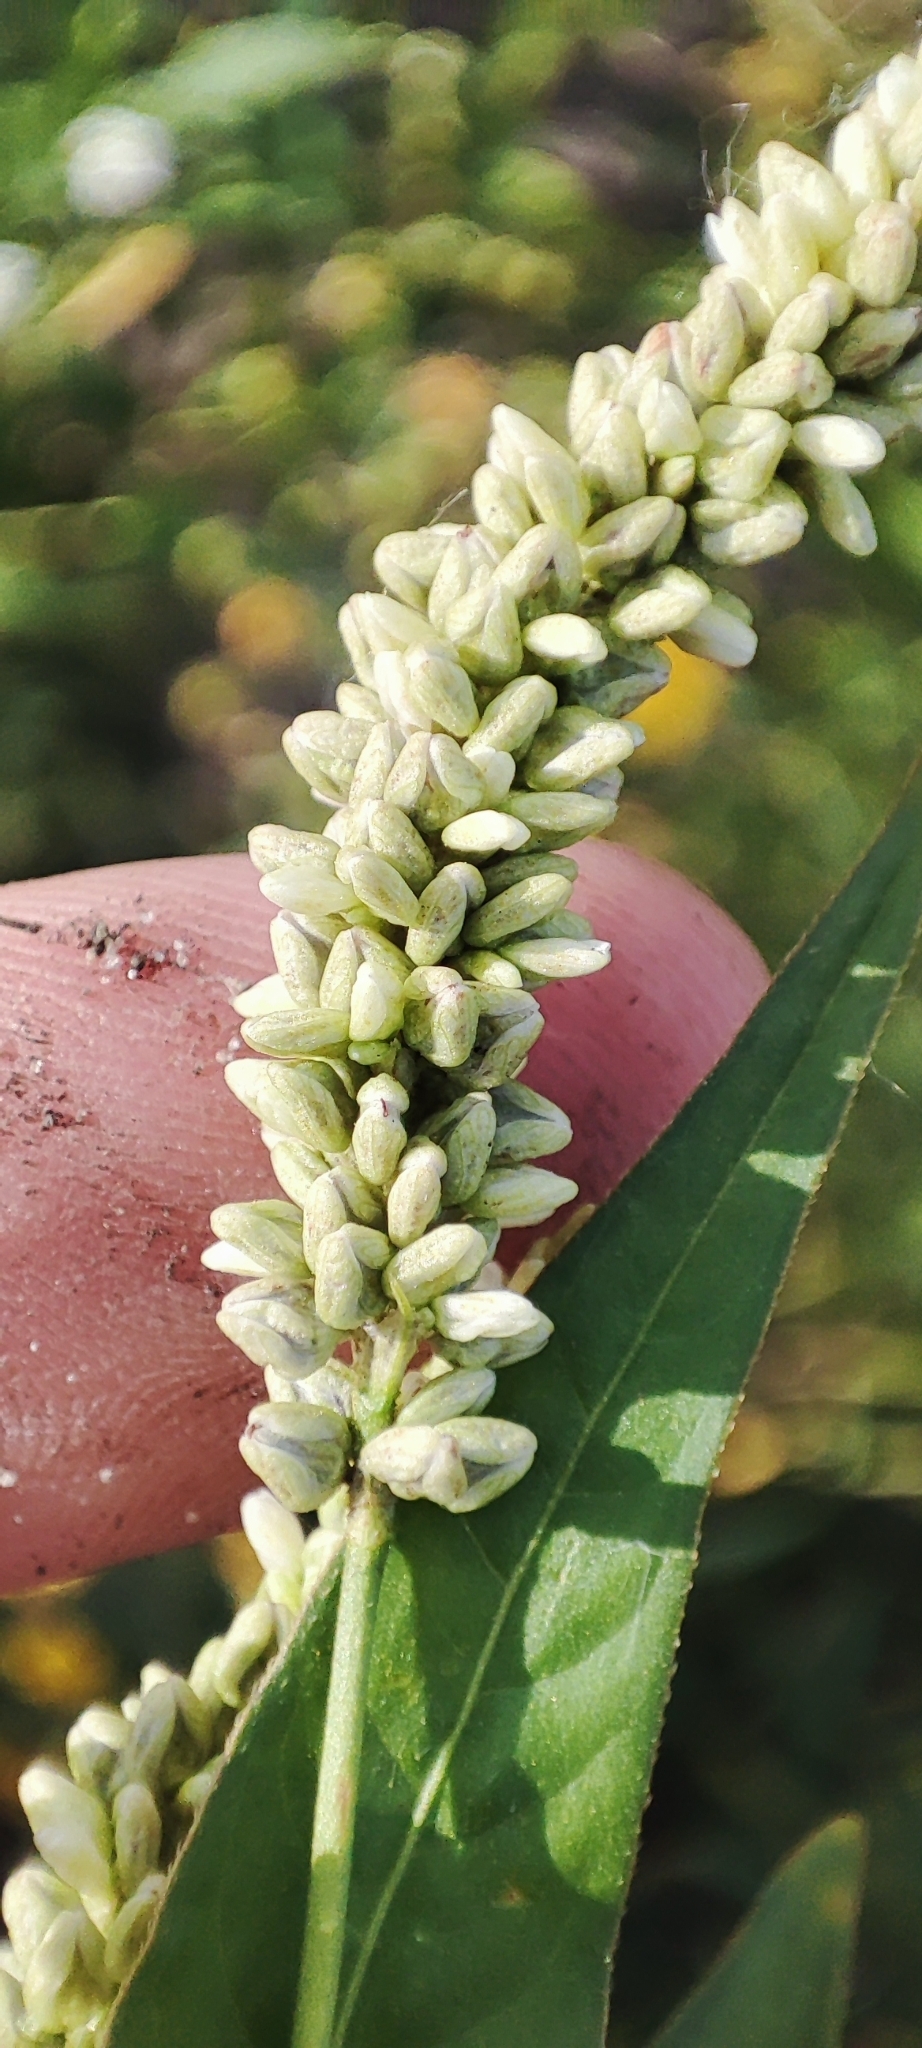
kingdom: Plantae
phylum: Tracheophyta
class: Magnoliopsida
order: Caryophyllales
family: Polygonaceae
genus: Persicaria
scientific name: Persicaria lapathifolia
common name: Curlytop knotweed
